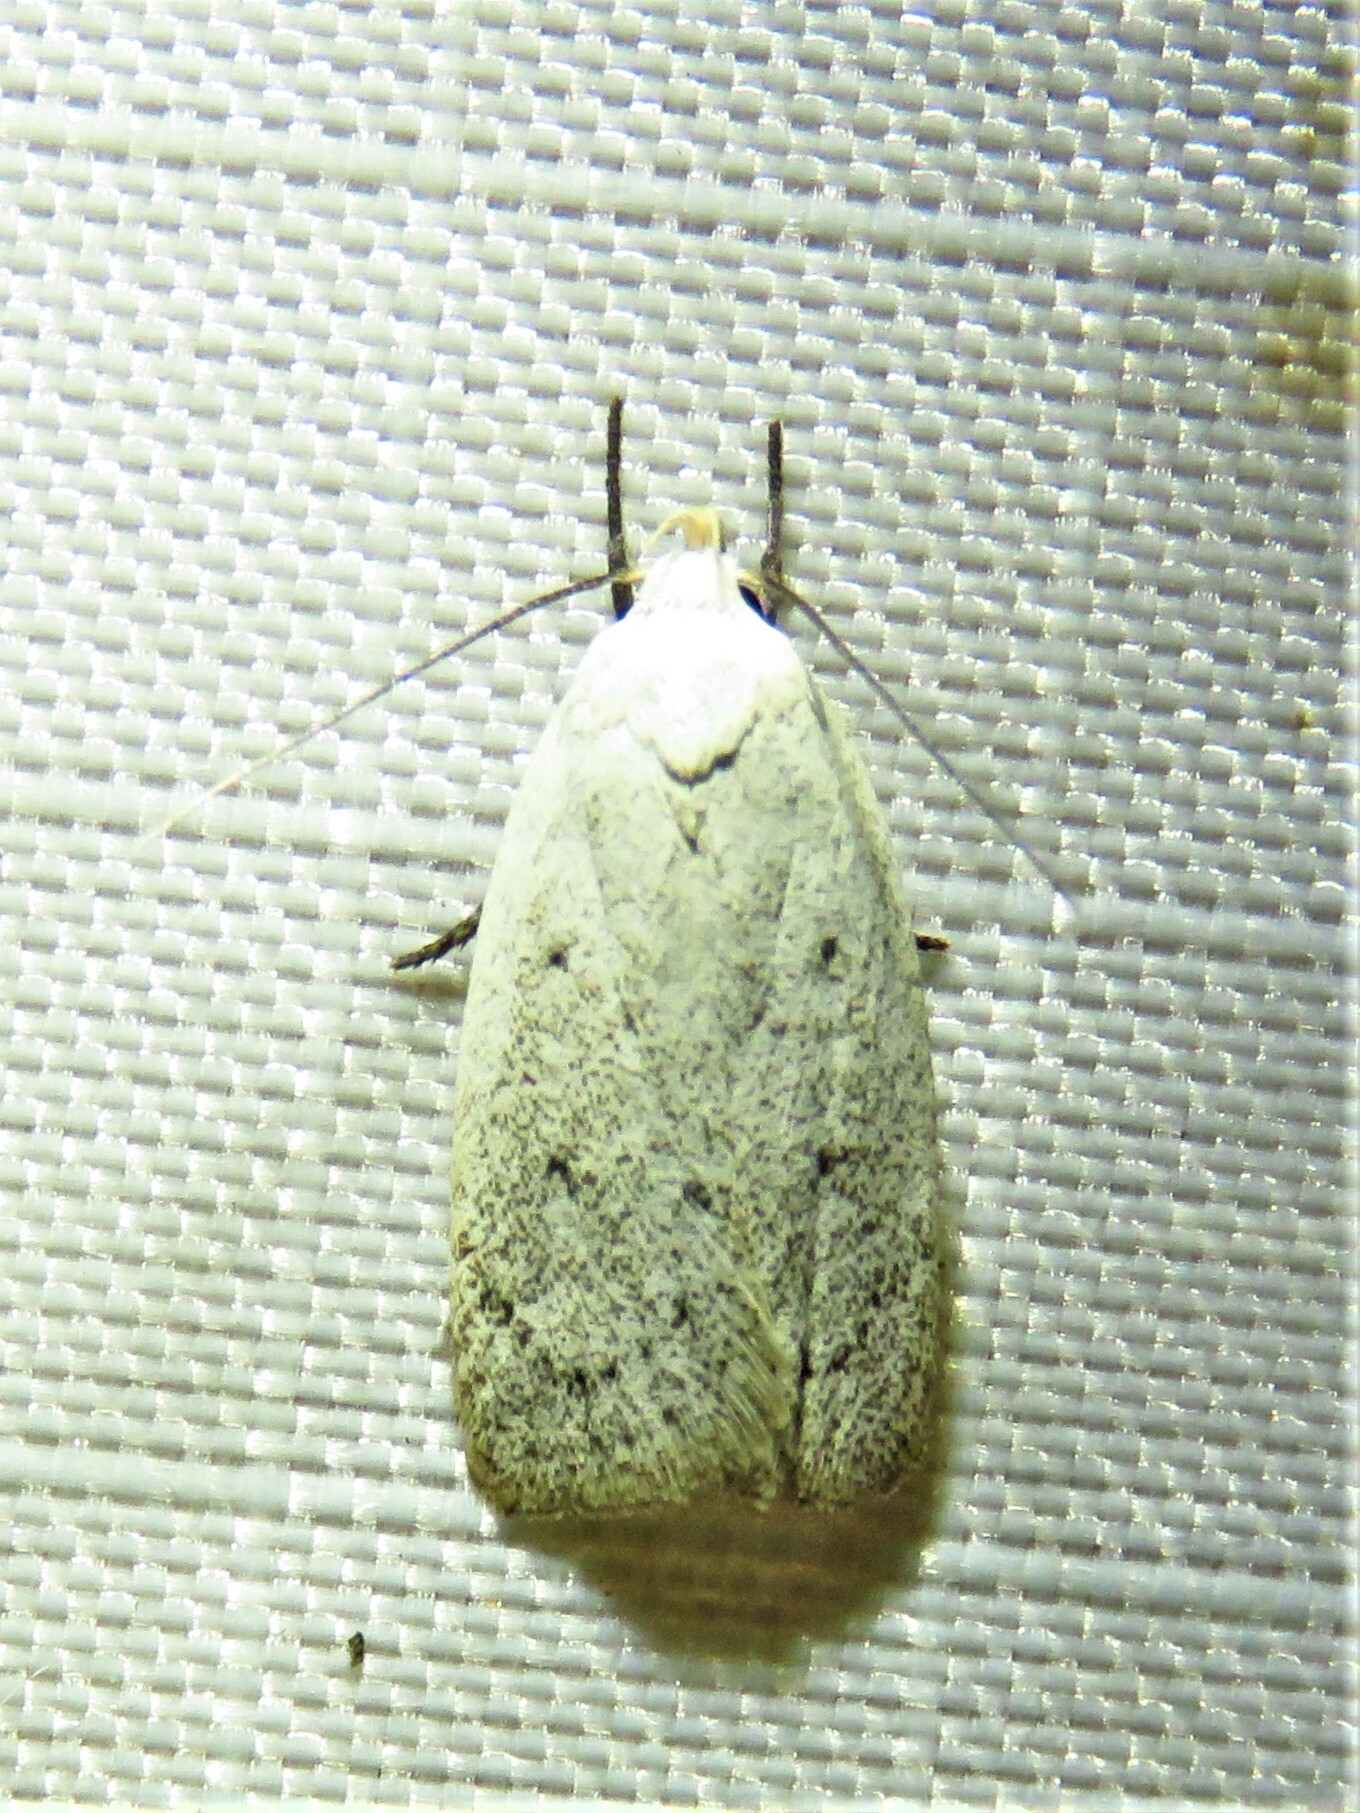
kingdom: Animalia
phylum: Arthropoda
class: Insecta
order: Lepidoptera
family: Oecophoridae
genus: Inga
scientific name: Inga cretacea
